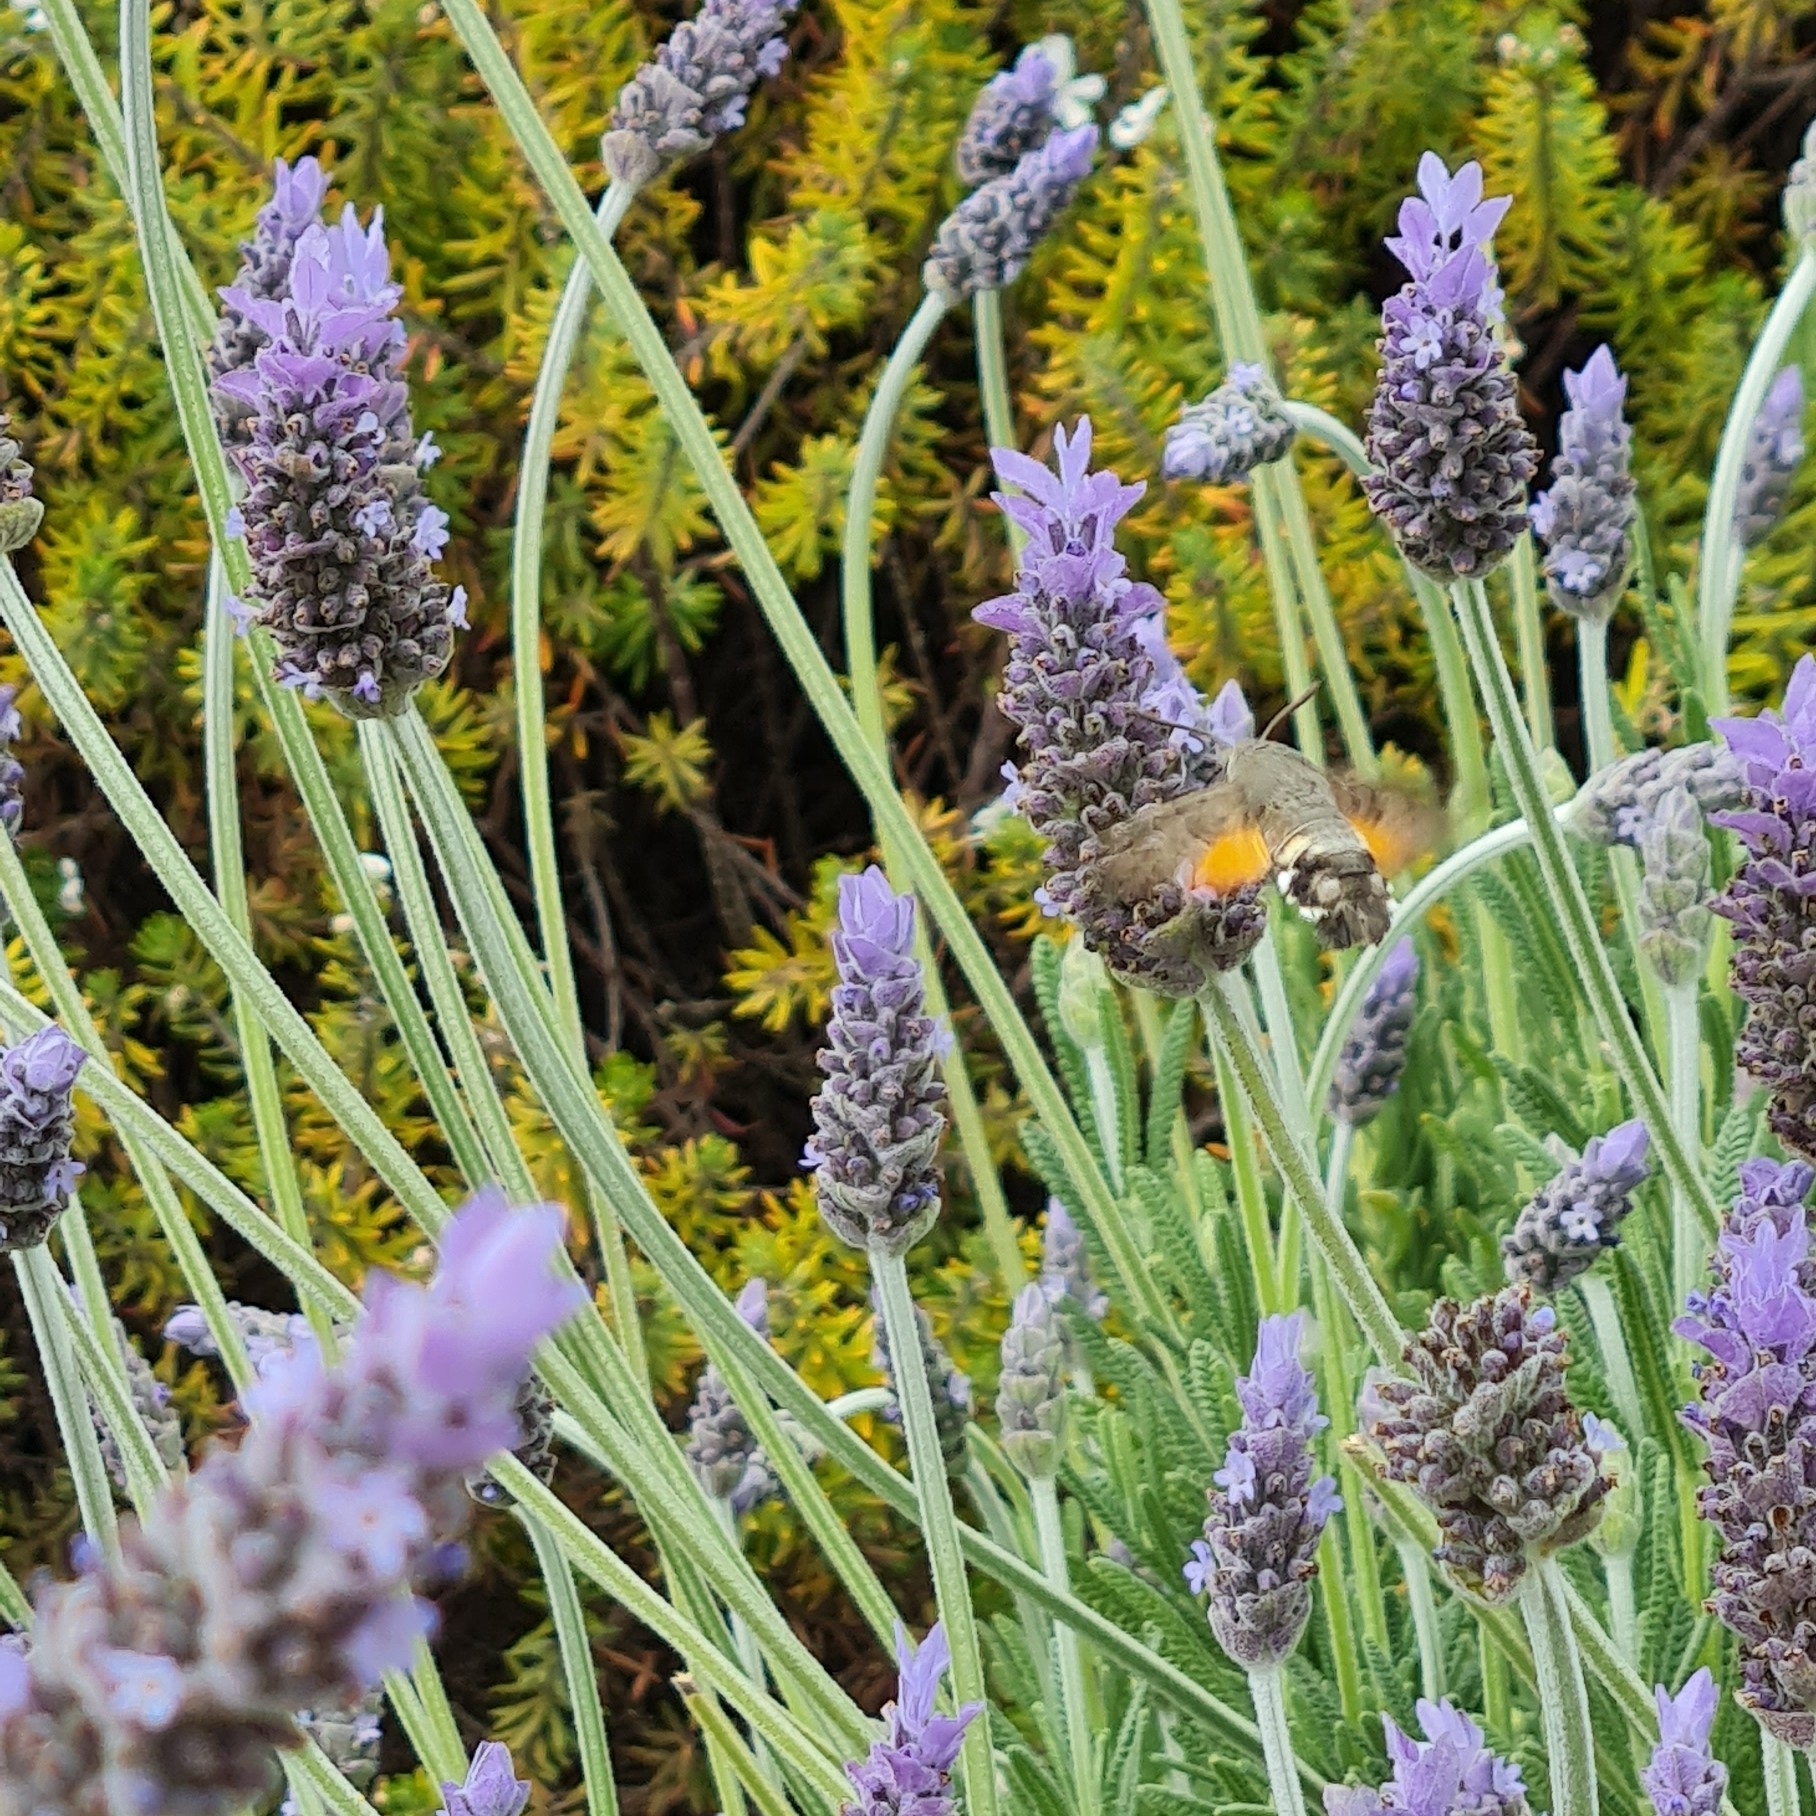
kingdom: Animalia
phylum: Arthropoda
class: Insecta
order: Lepidoptera
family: Sphingidae
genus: Macroglossum
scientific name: Macroglossum stellatarum
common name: Humming-bird hawk-moth
